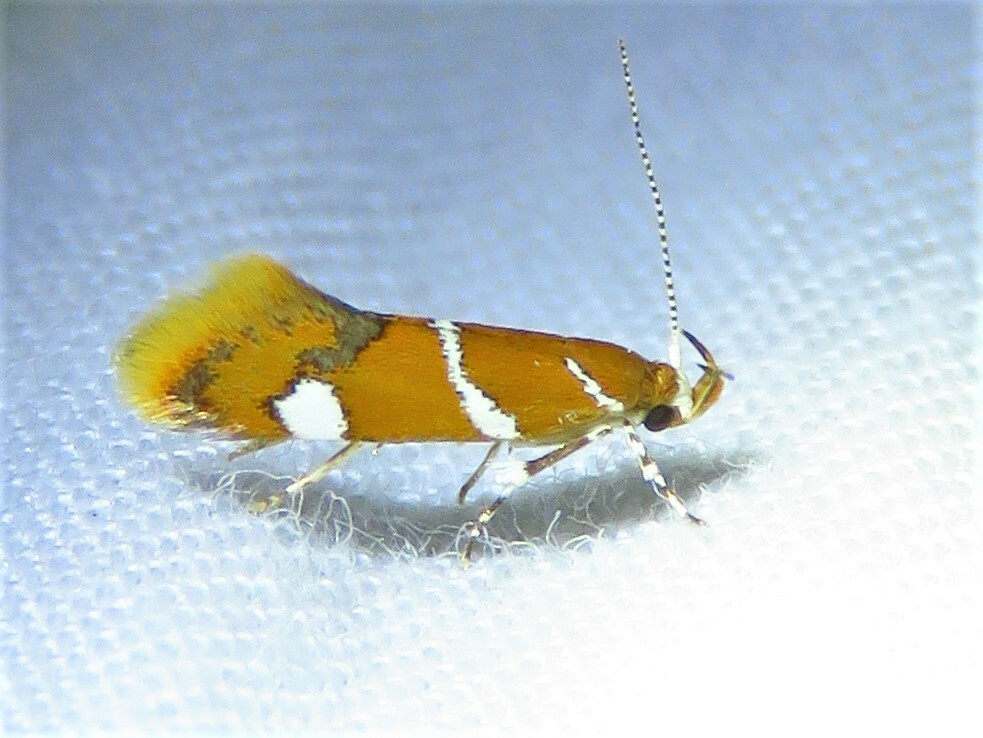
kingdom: Animalia
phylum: Arthropoda
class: Insecta
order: Lepidoptera
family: Oecophoridae
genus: Promalactis
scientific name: Promalactis suzukiella
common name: Moth
